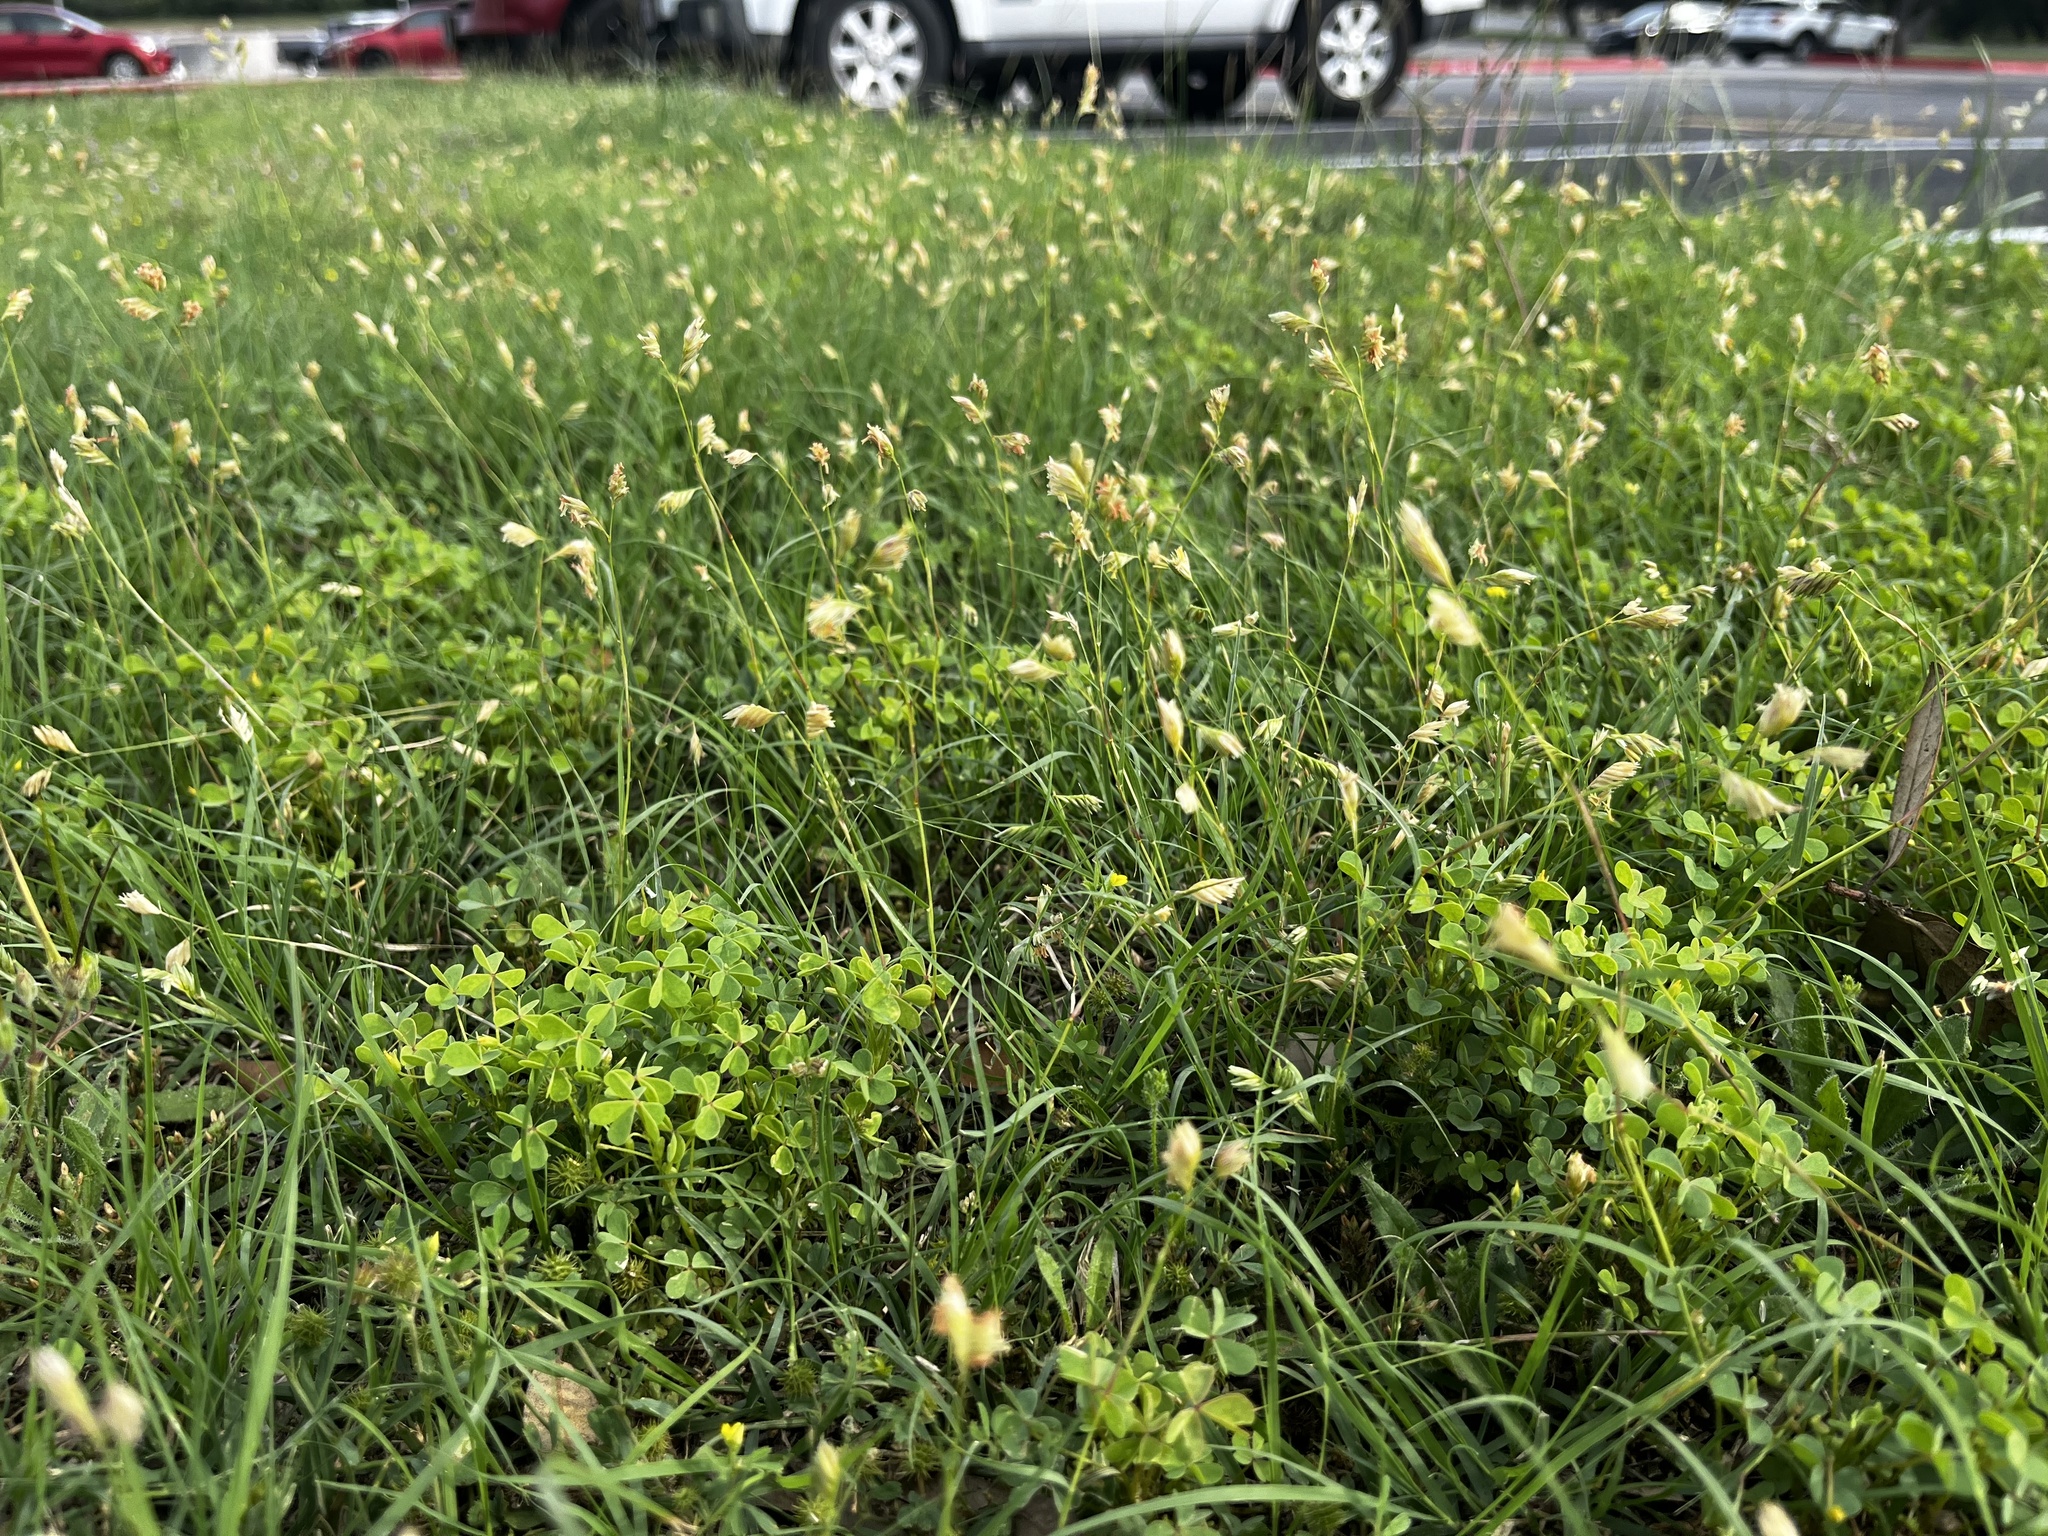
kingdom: Plantae
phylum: Tracheophyta
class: Liliopsida
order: Poales
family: Poaceae
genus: Bouteloua
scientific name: Bouteloua dactyloides
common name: Buffalo grass
